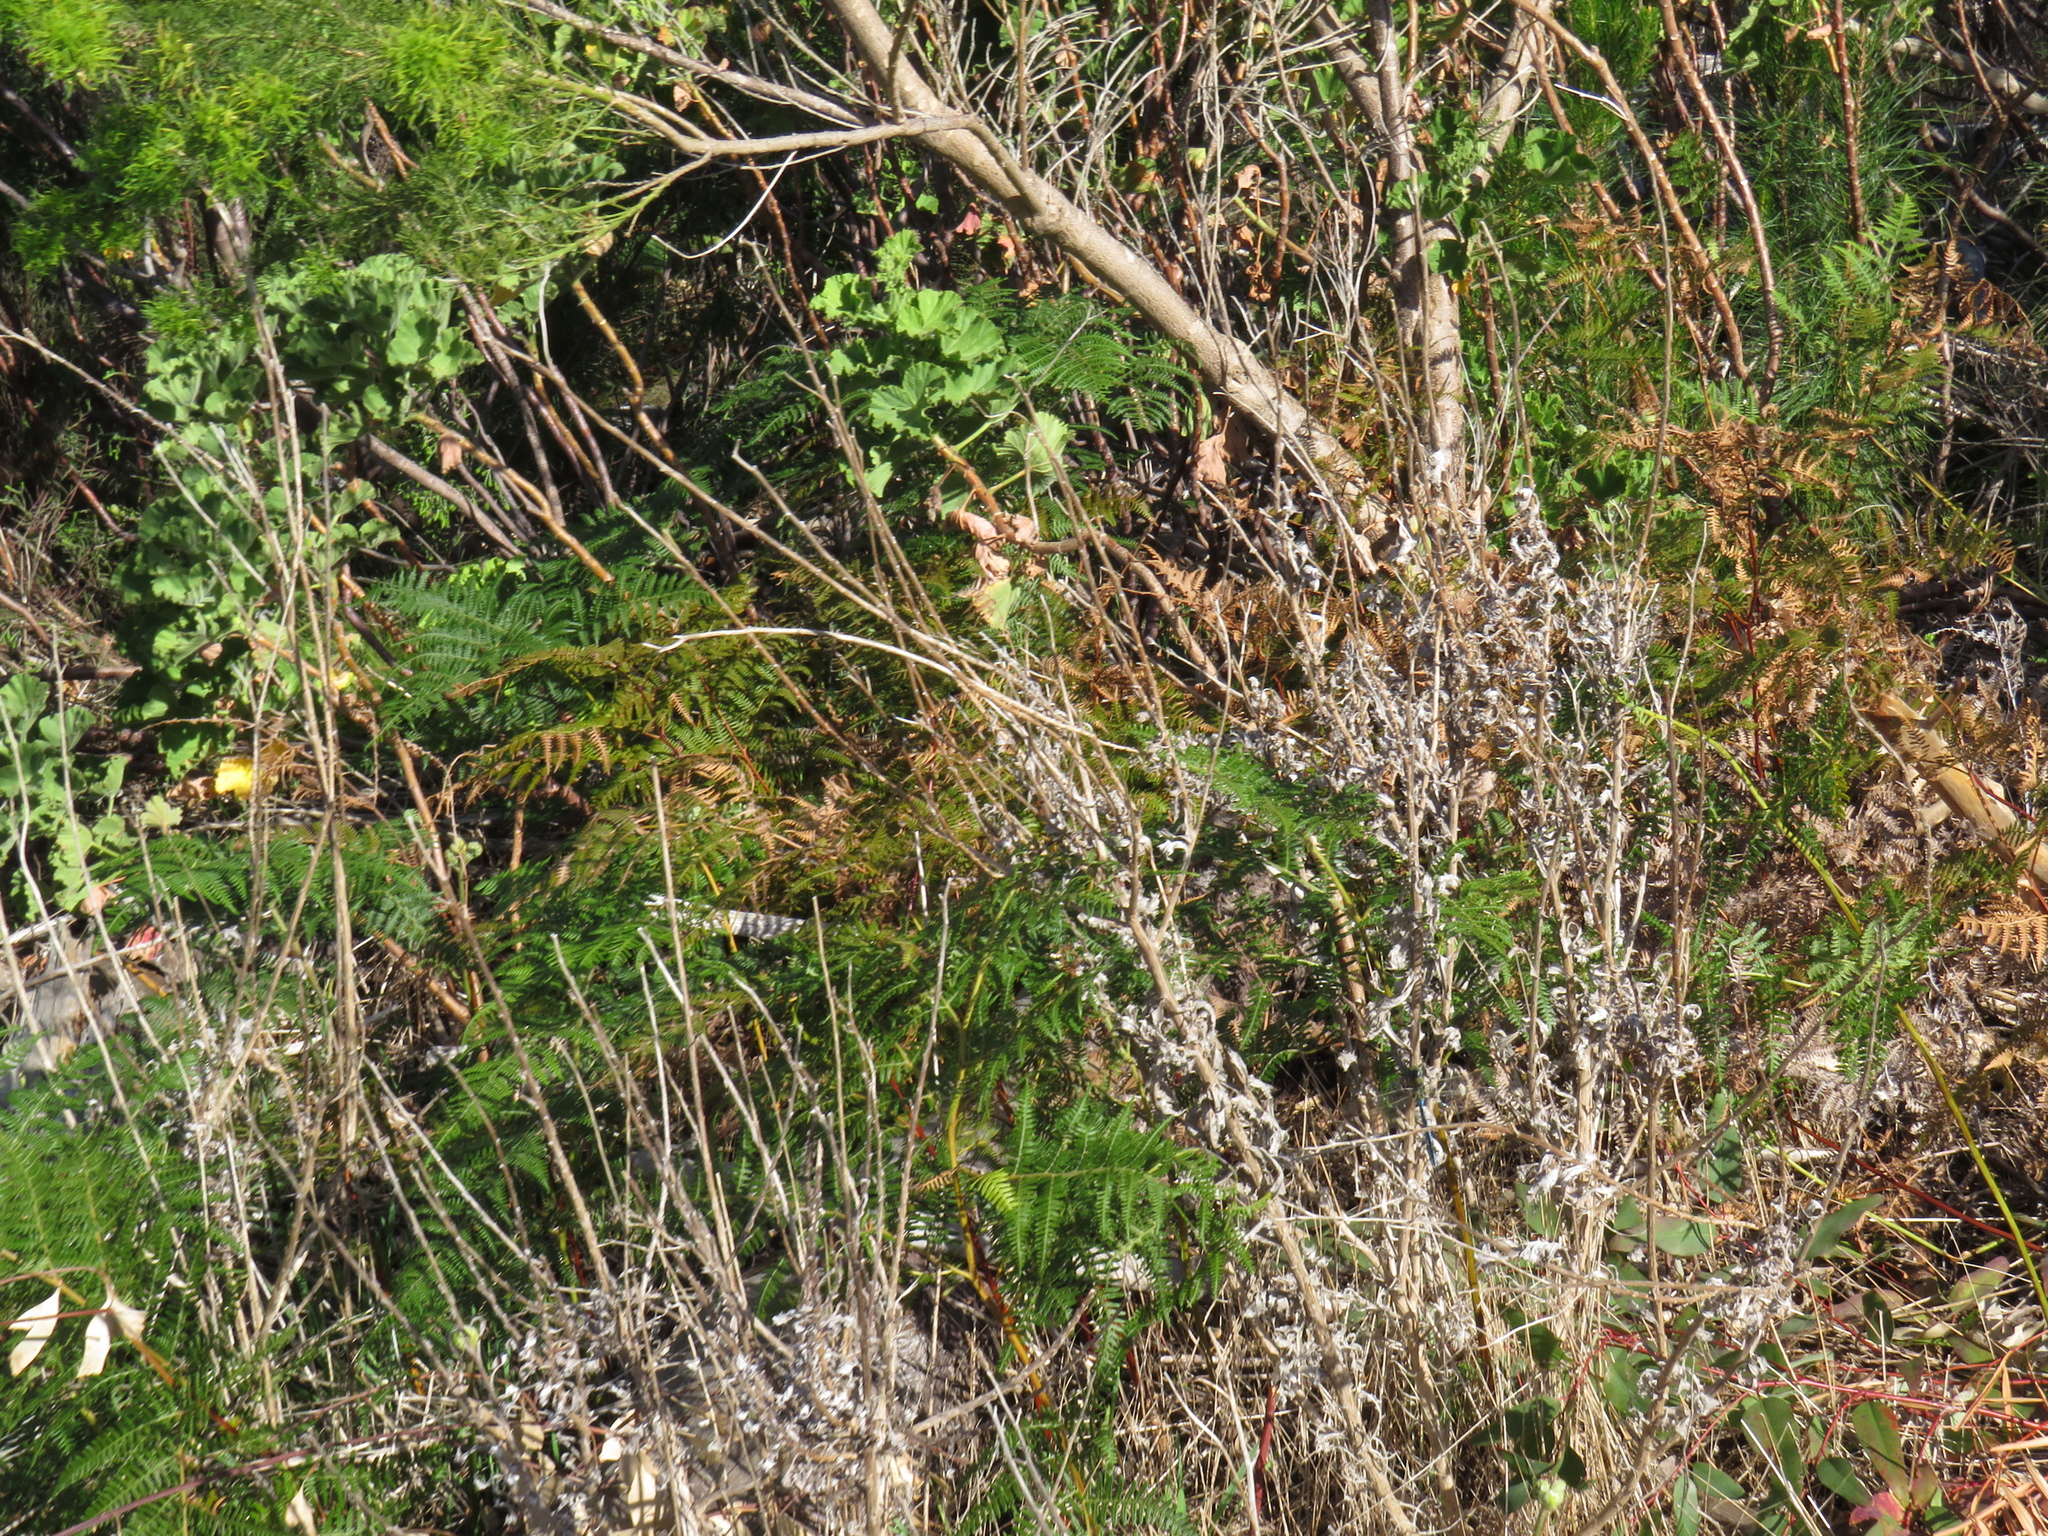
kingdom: Plantae
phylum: Tracheophyta
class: Polypodiopsida
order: Polypodiales
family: Dennstaedtiaceae
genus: Pteridium
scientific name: Pteridium aquilinum
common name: Bracken
